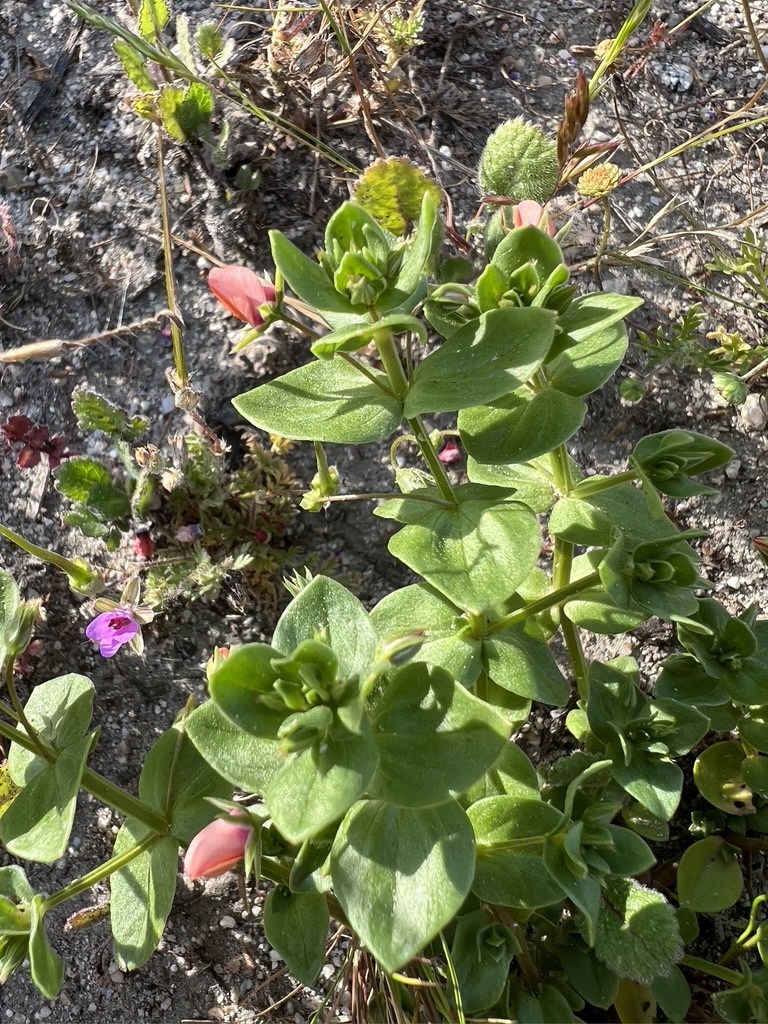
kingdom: Plantae
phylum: Tracheophyta
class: Magnoliopsida
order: Ericales
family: Primulaceae
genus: Lysimachia
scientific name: Lysimachia arvensis
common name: Scarlet pimpernel
